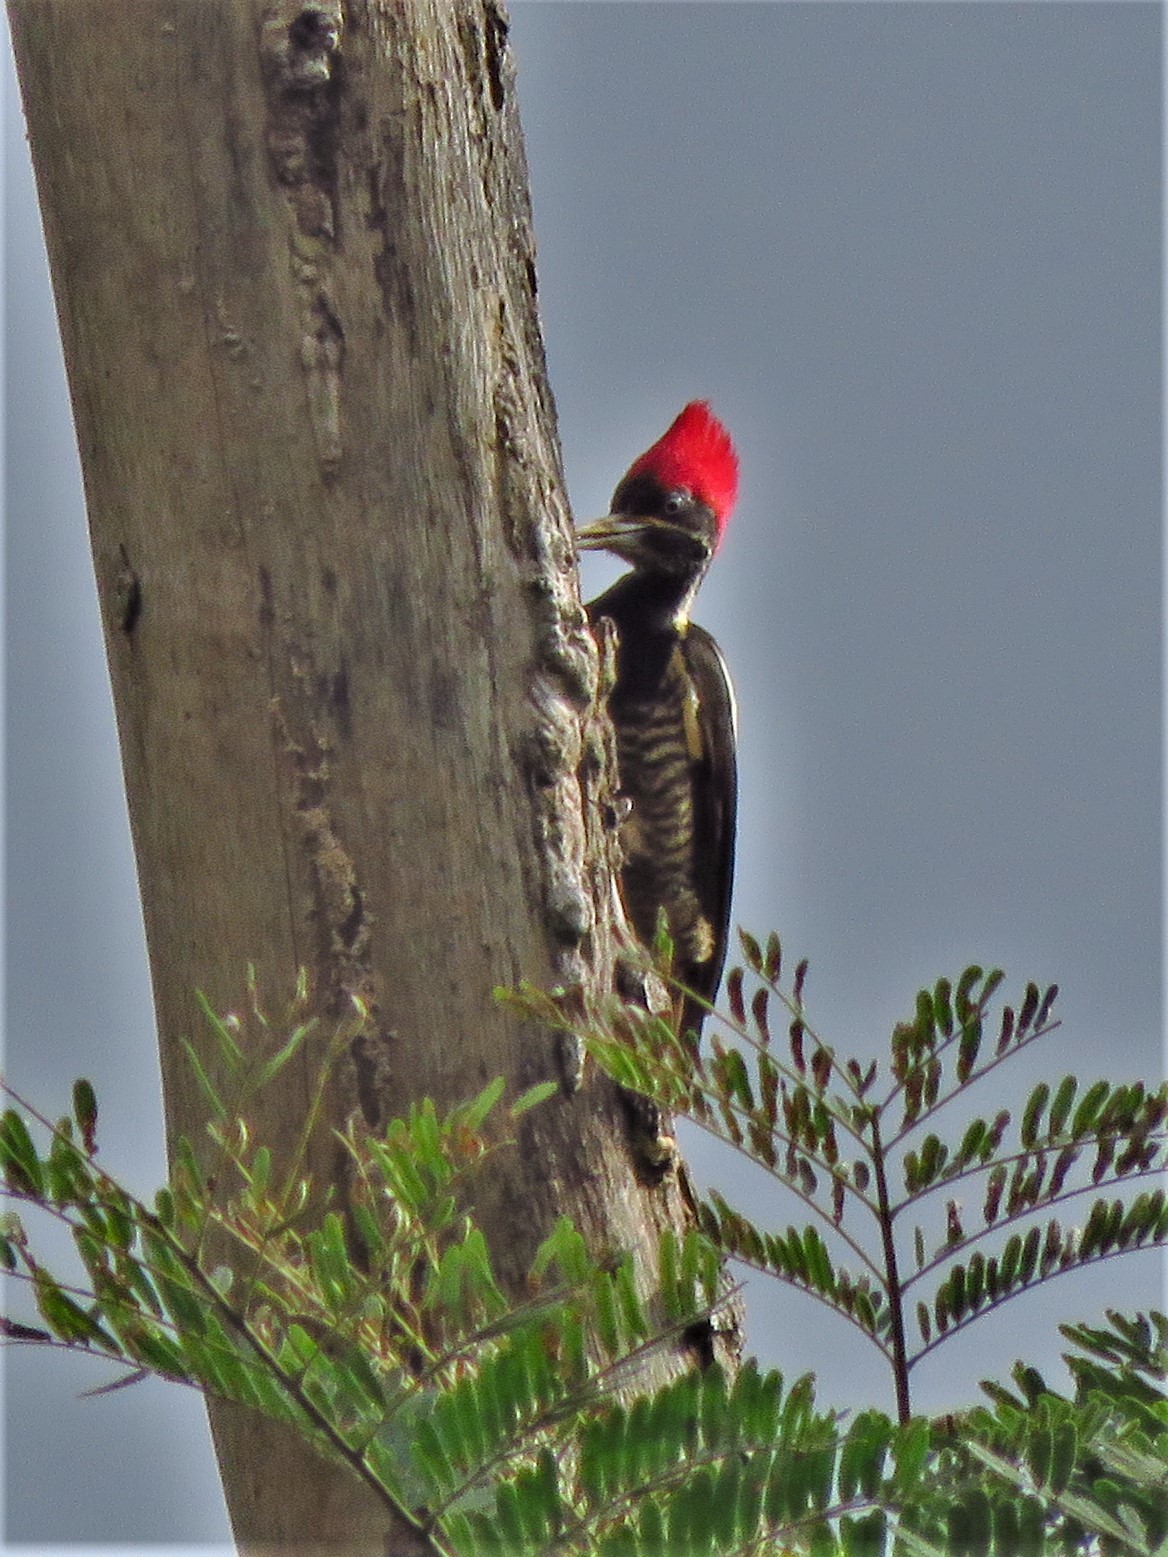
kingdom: Animalia
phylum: Chordata
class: Aves
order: Piciformes
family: Picidae
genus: Dryocopus
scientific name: Dryocopus lineatus
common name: Lineated woodpecker
